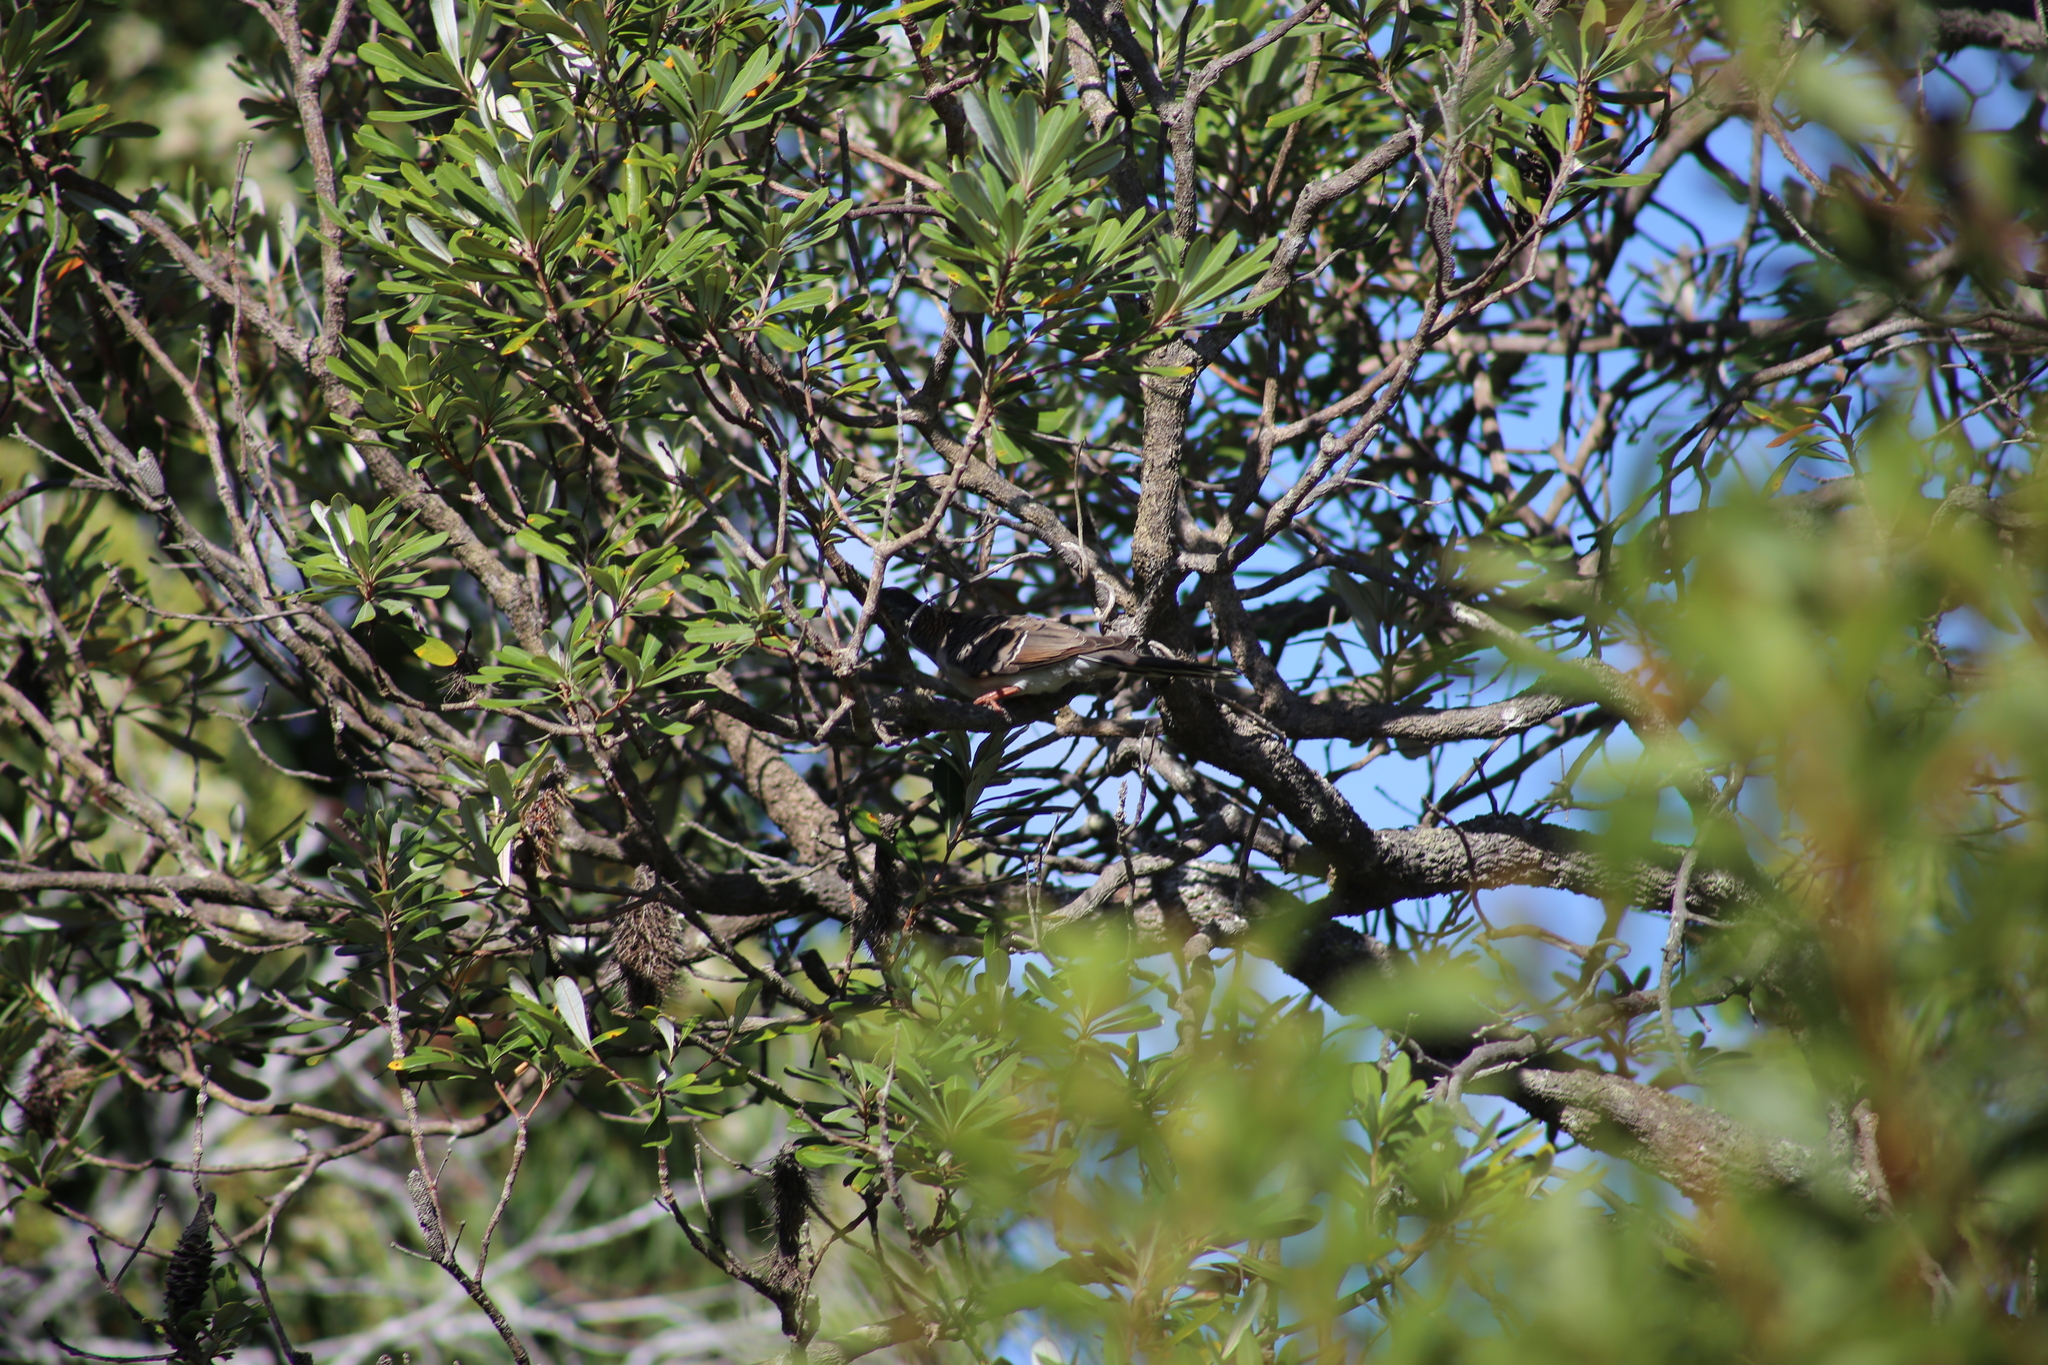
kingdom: Animalia
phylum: Chordata
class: Aves
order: Columbiformes
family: Columbidae
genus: Geopelia
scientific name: Geopelia humeralis
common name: Bar-shouldered dove
